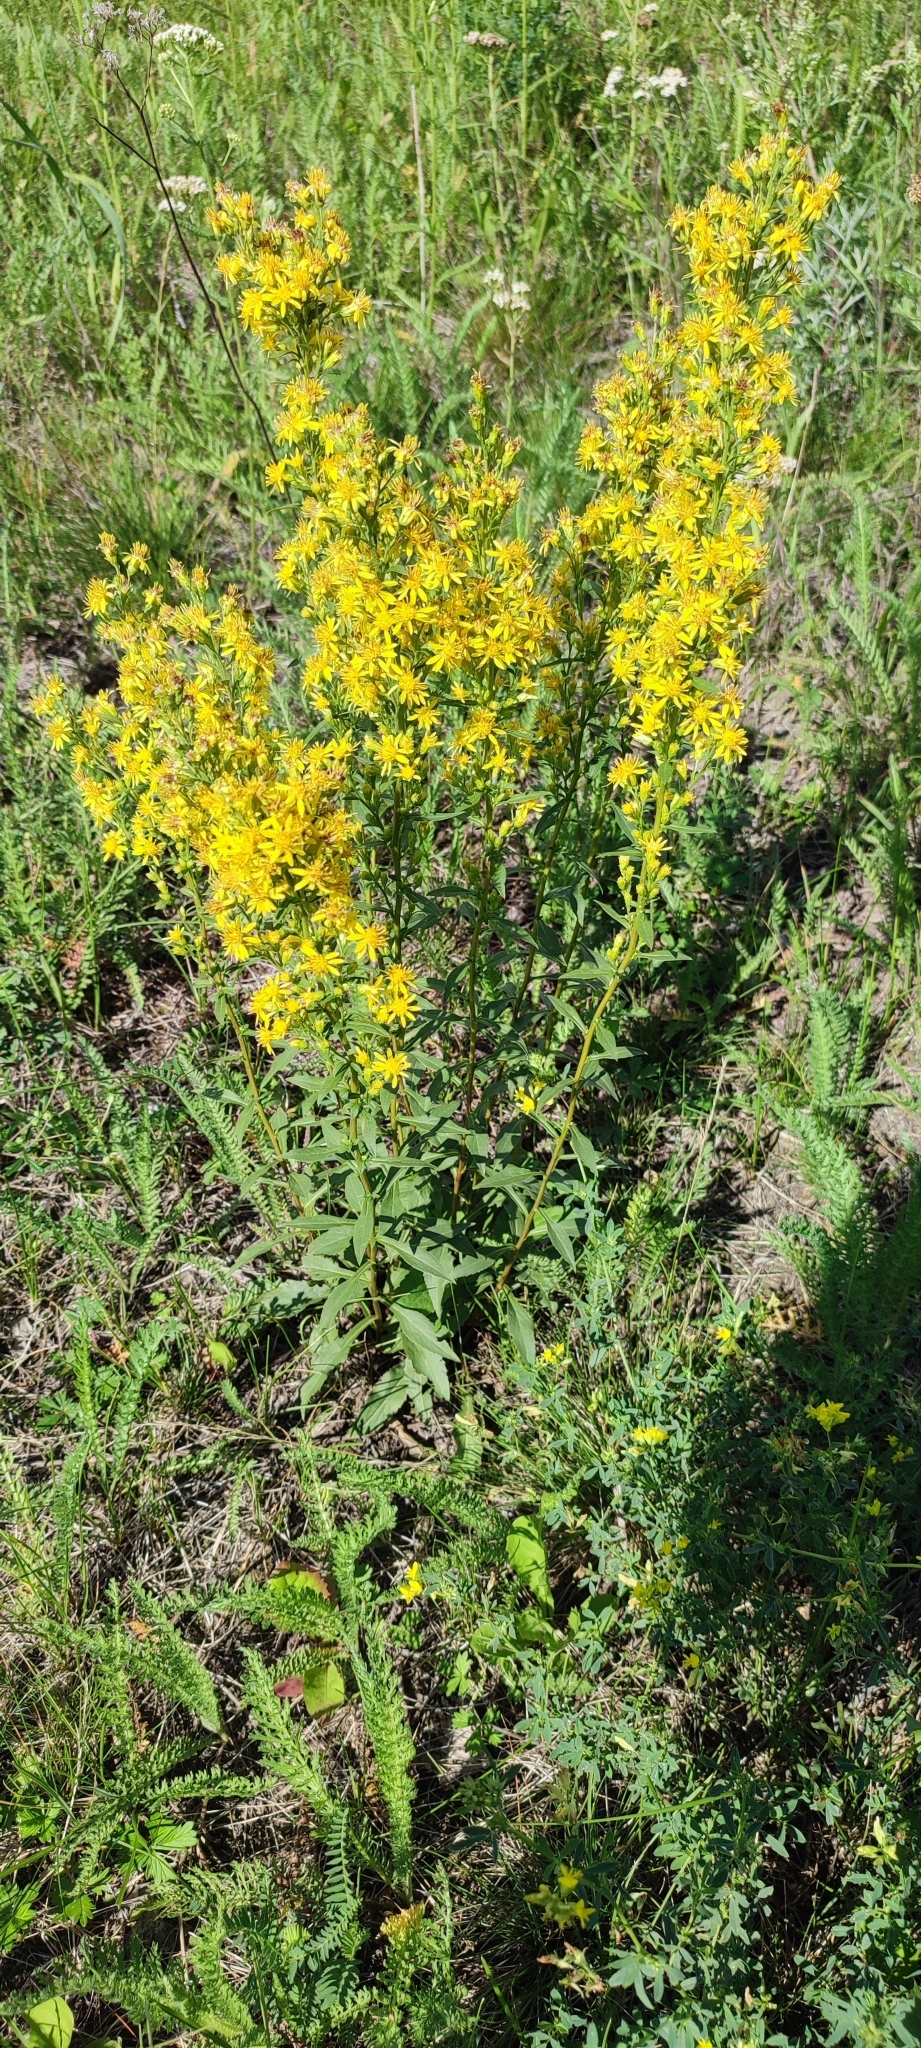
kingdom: Plantae
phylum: Tracheophyta
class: Magnoliopsida
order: Asterales
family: Asteraceae
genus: Solidago
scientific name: Solidago virgaurea
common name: Goldenrod
